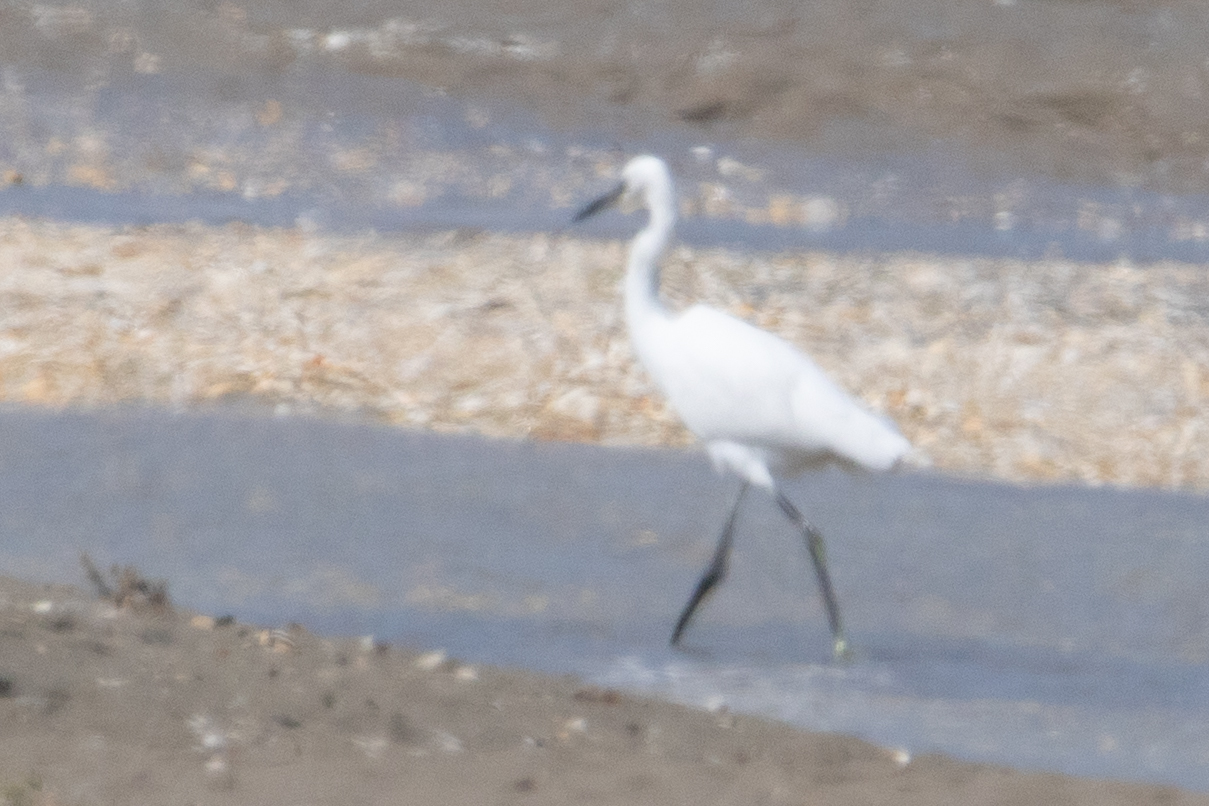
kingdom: Animalia
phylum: Chordata
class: Aves
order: Pelecaniformes
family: Ardeidae
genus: Egretta
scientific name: Egretta garzetta
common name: Little egret
